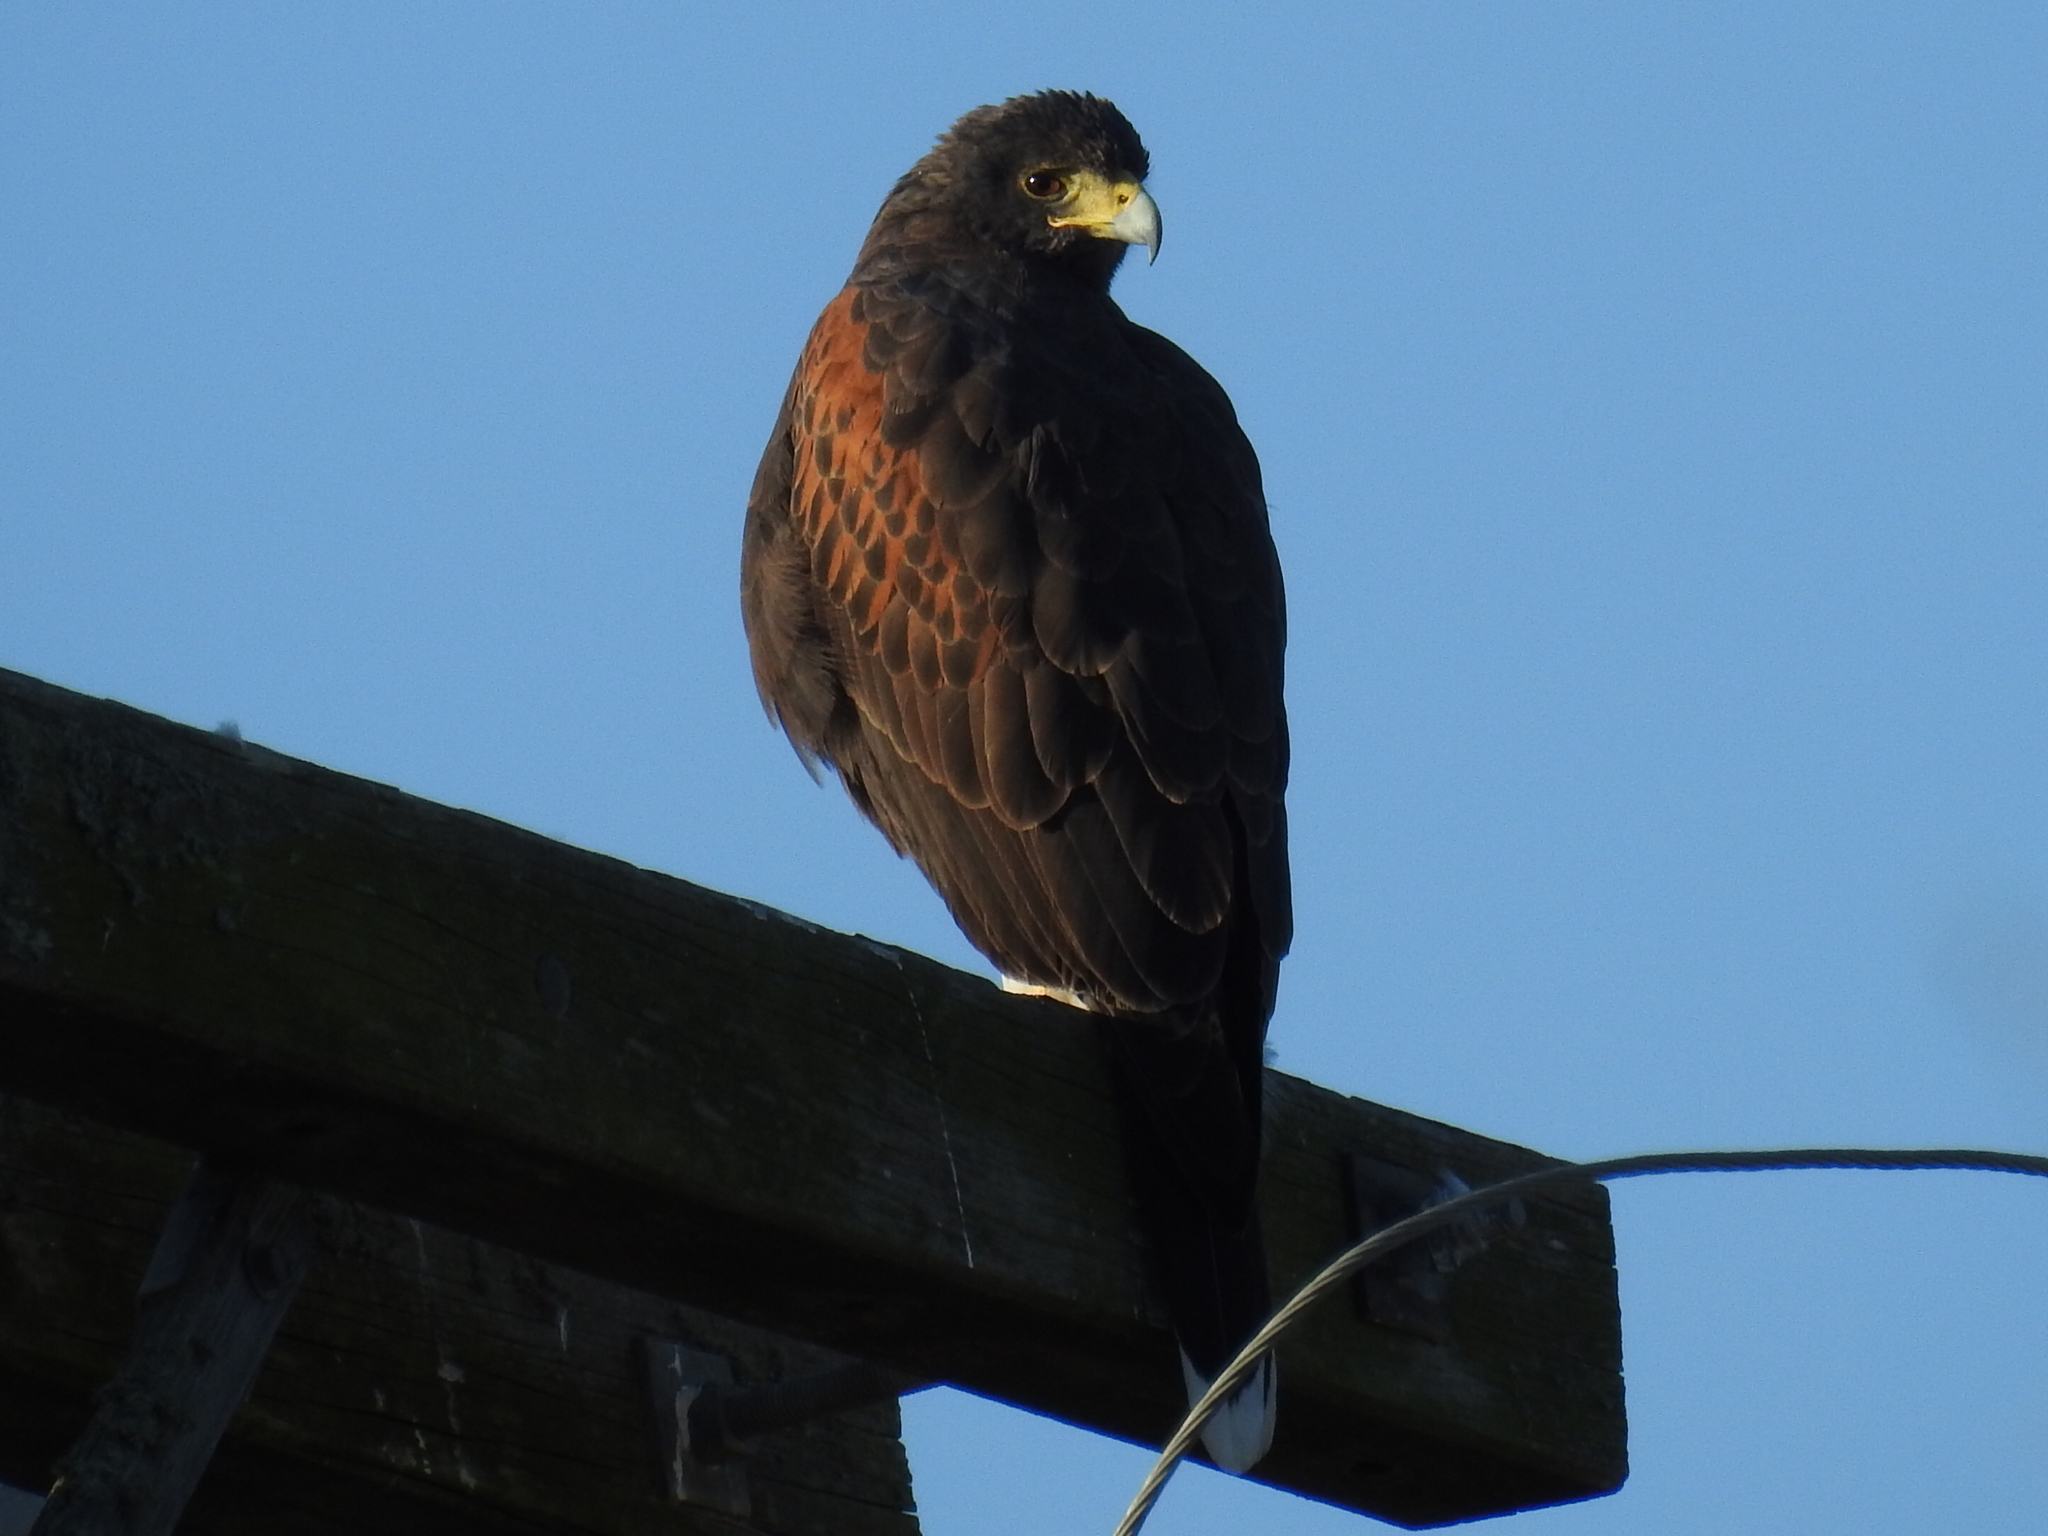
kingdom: Animalia
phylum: Chordata
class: Aves
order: Accipitriformes
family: Accipitridae
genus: Parabuteo
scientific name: Parabuteo unicinctus
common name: Harris's hawk
